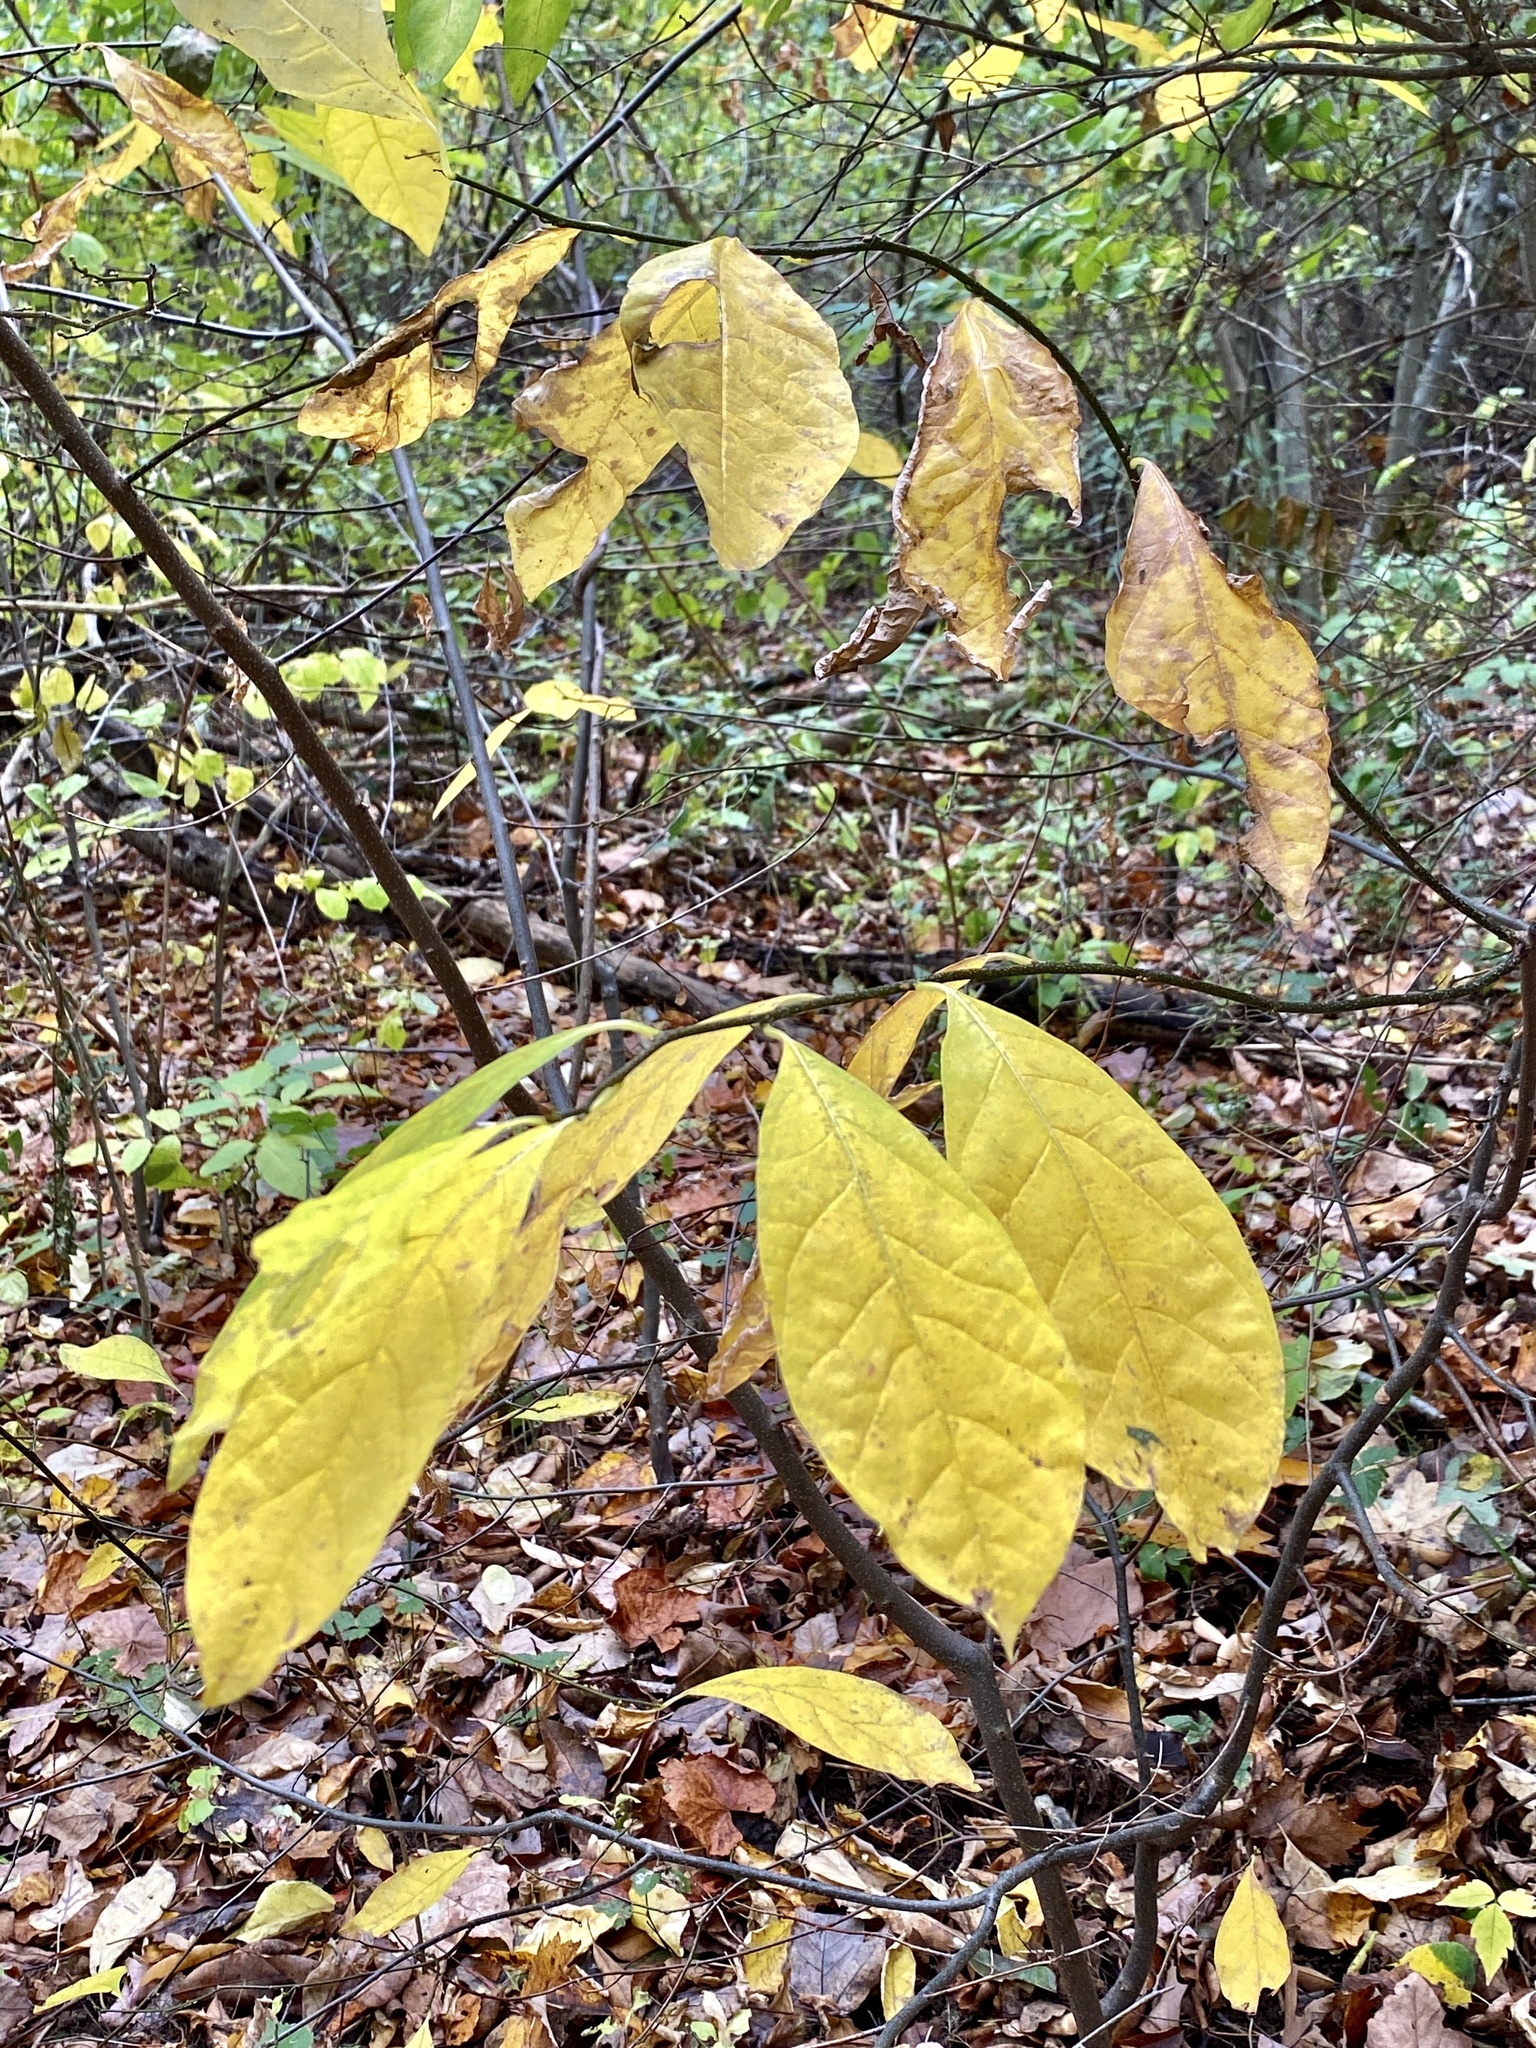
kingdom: Plantae
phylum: Tracheophyta
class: Magnoliopsida
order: Laurales
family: Lauraceae
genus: Lindera
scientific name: Lindera benzoin
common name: Spicebush
